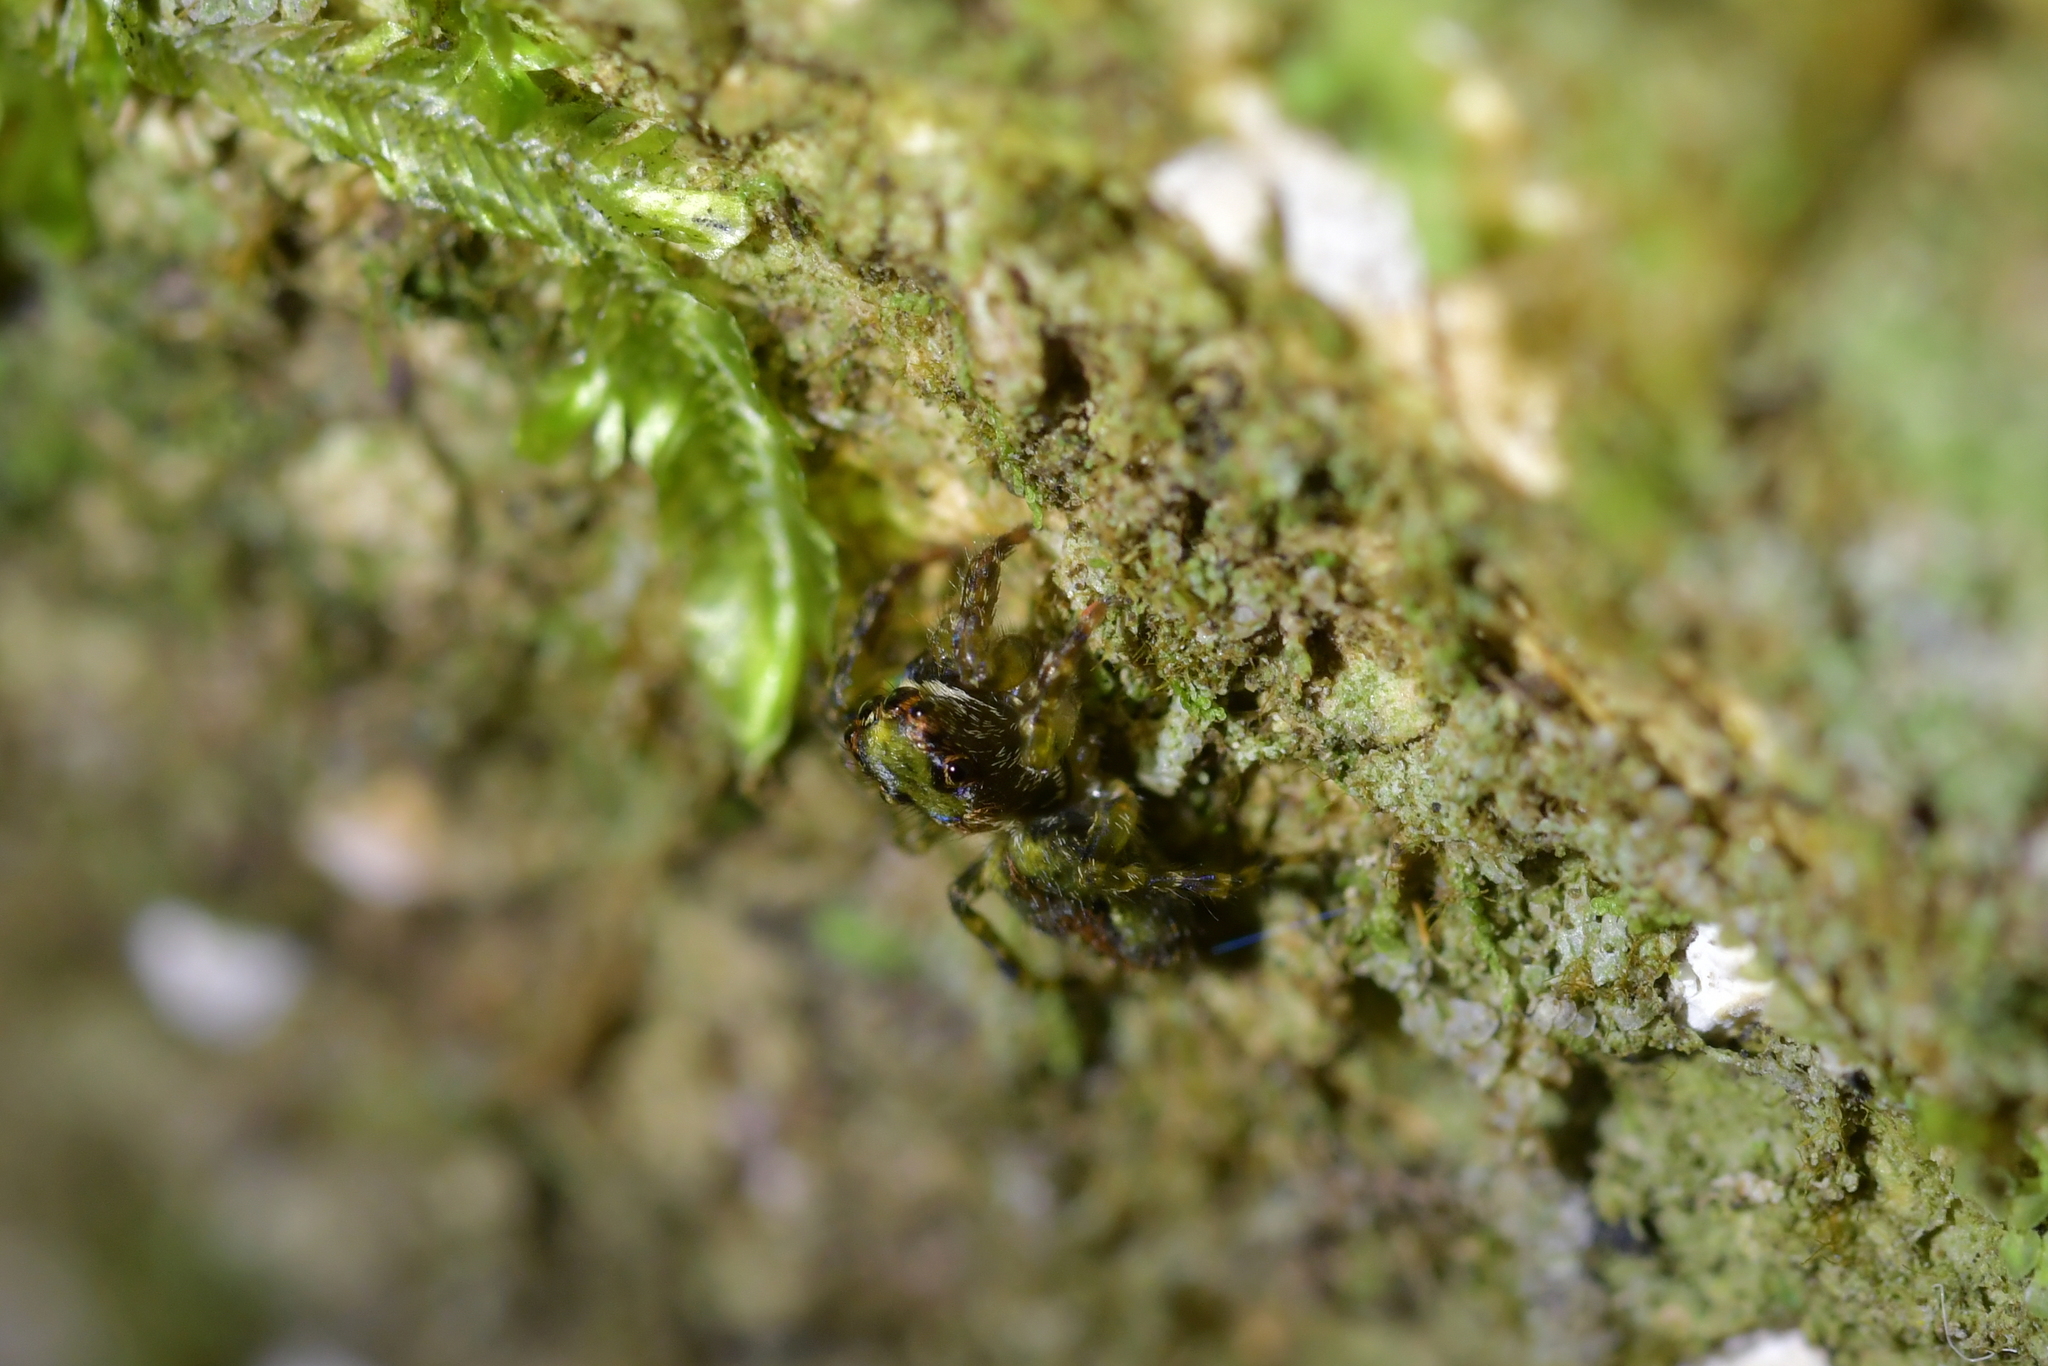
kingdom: Animalia
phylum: Arthropoda
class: Arachnida
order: Araneae
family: Salticidae
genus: Hinewaia
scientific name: Hinewaia embolica
